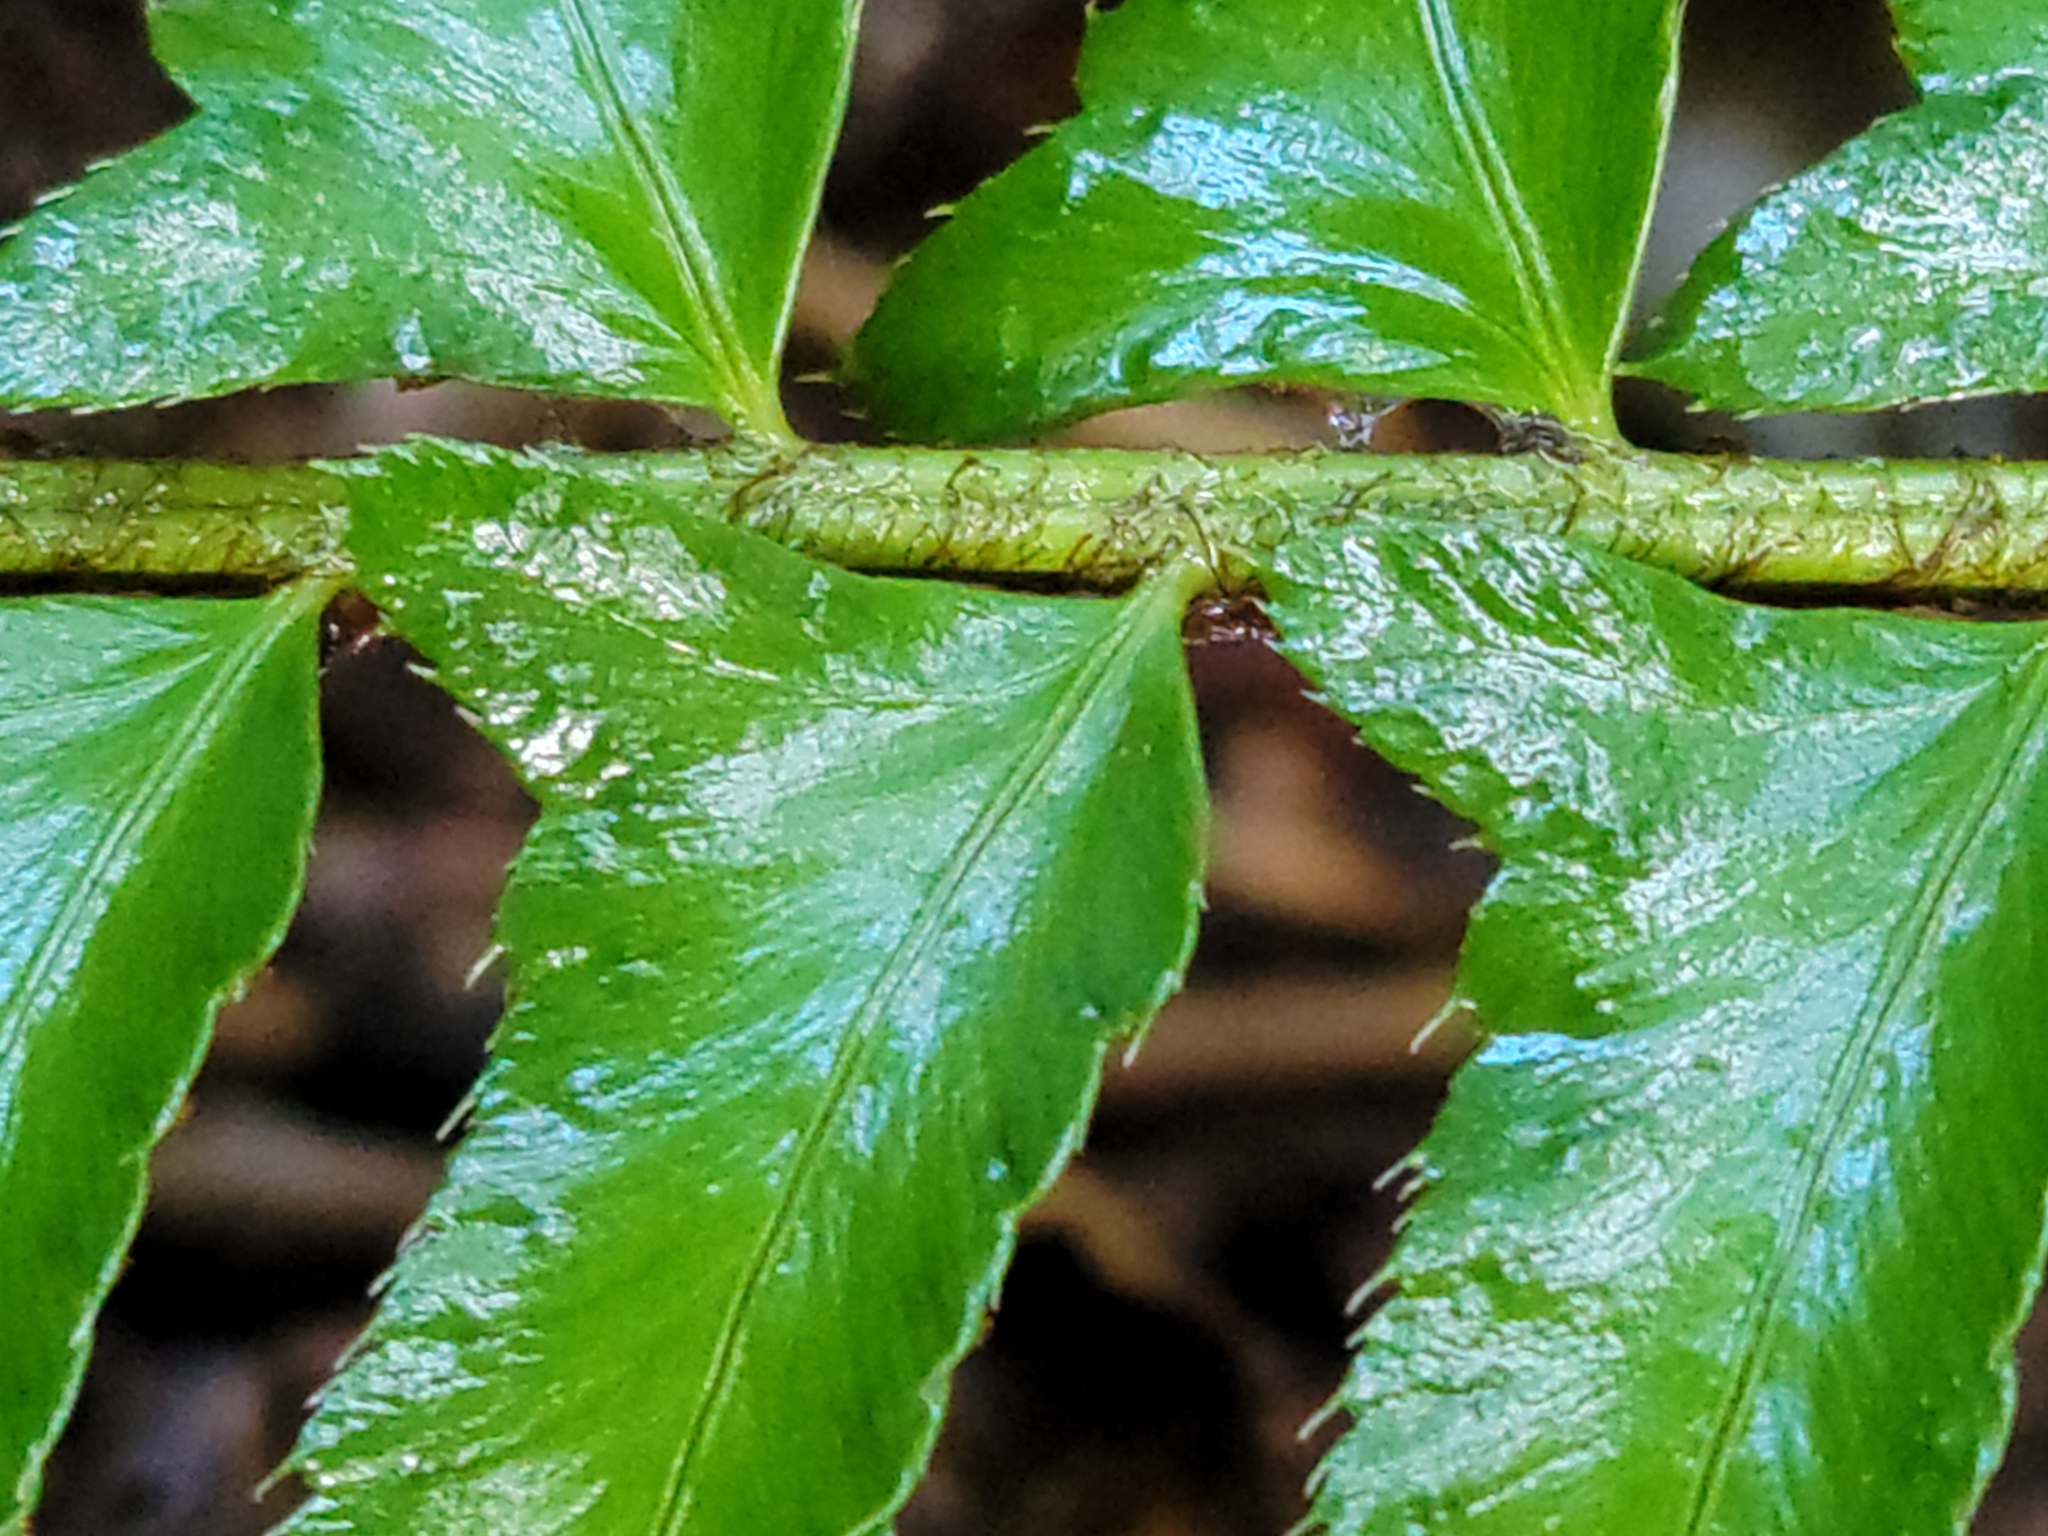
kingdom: Plantae
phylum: Tracheophyta
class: Polypodiopsida
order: Polypodiales
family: Dryopteridaceae
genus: Polystichum
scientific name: Polystichum munitum
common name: Western sword-fern
